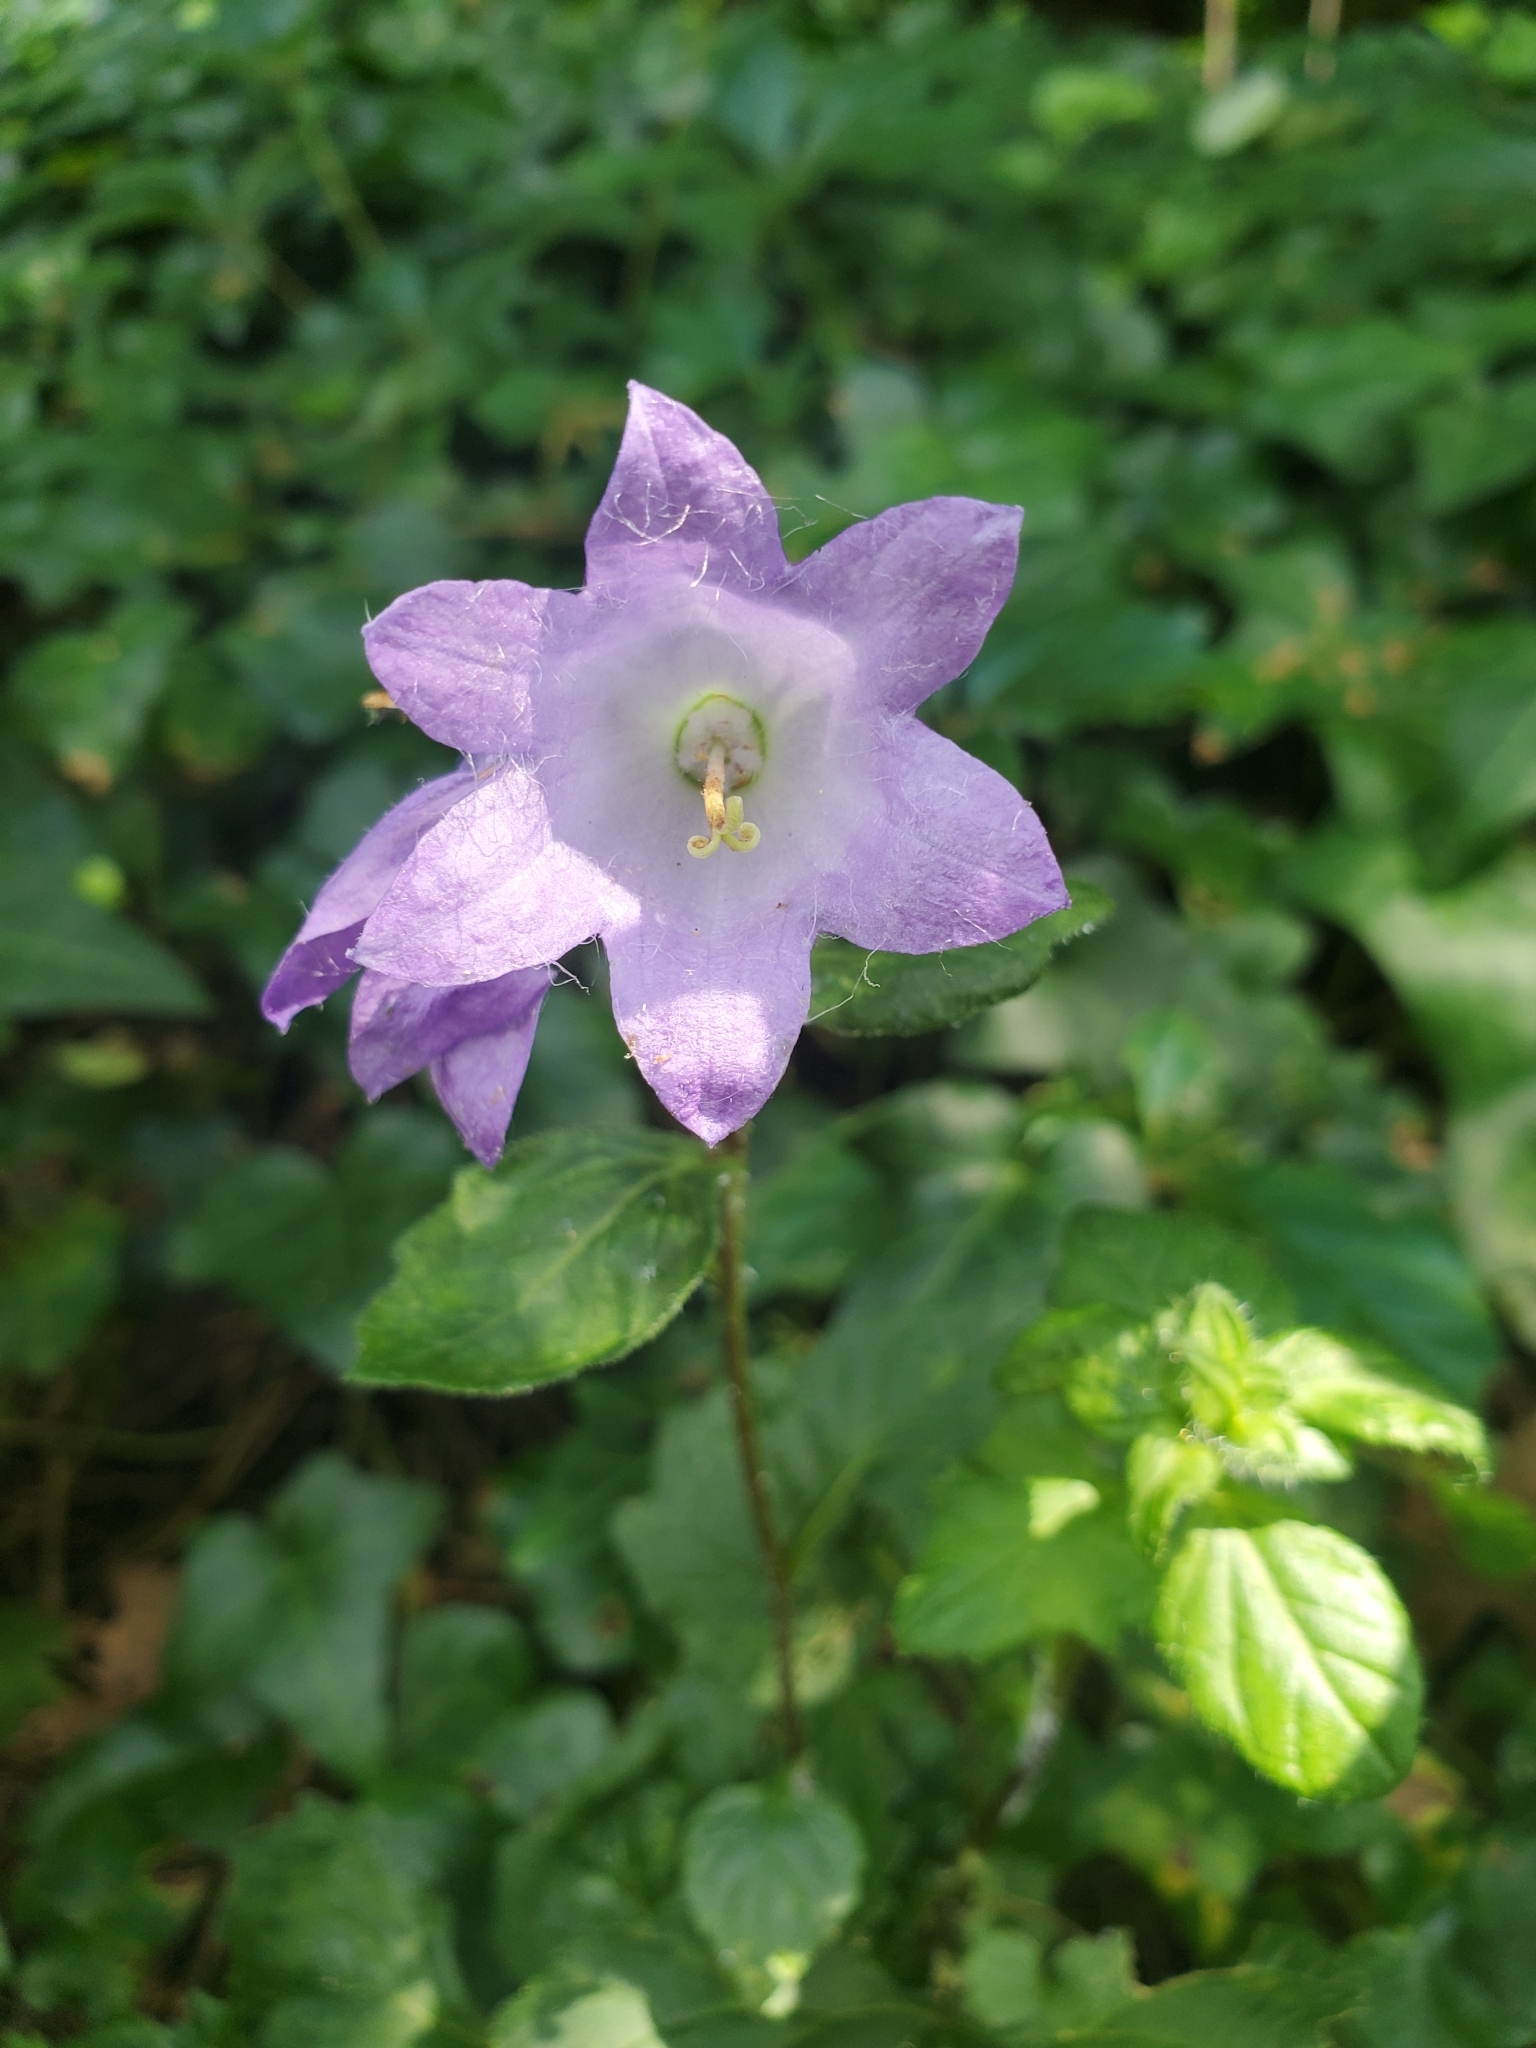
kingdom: Plantae
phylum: Tracheophyta
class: Magnoliopsida
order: Asterales
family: Campanulaceae
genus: Campanula
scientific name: Campanula trachelium
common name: Nettle-leaved bellflower
